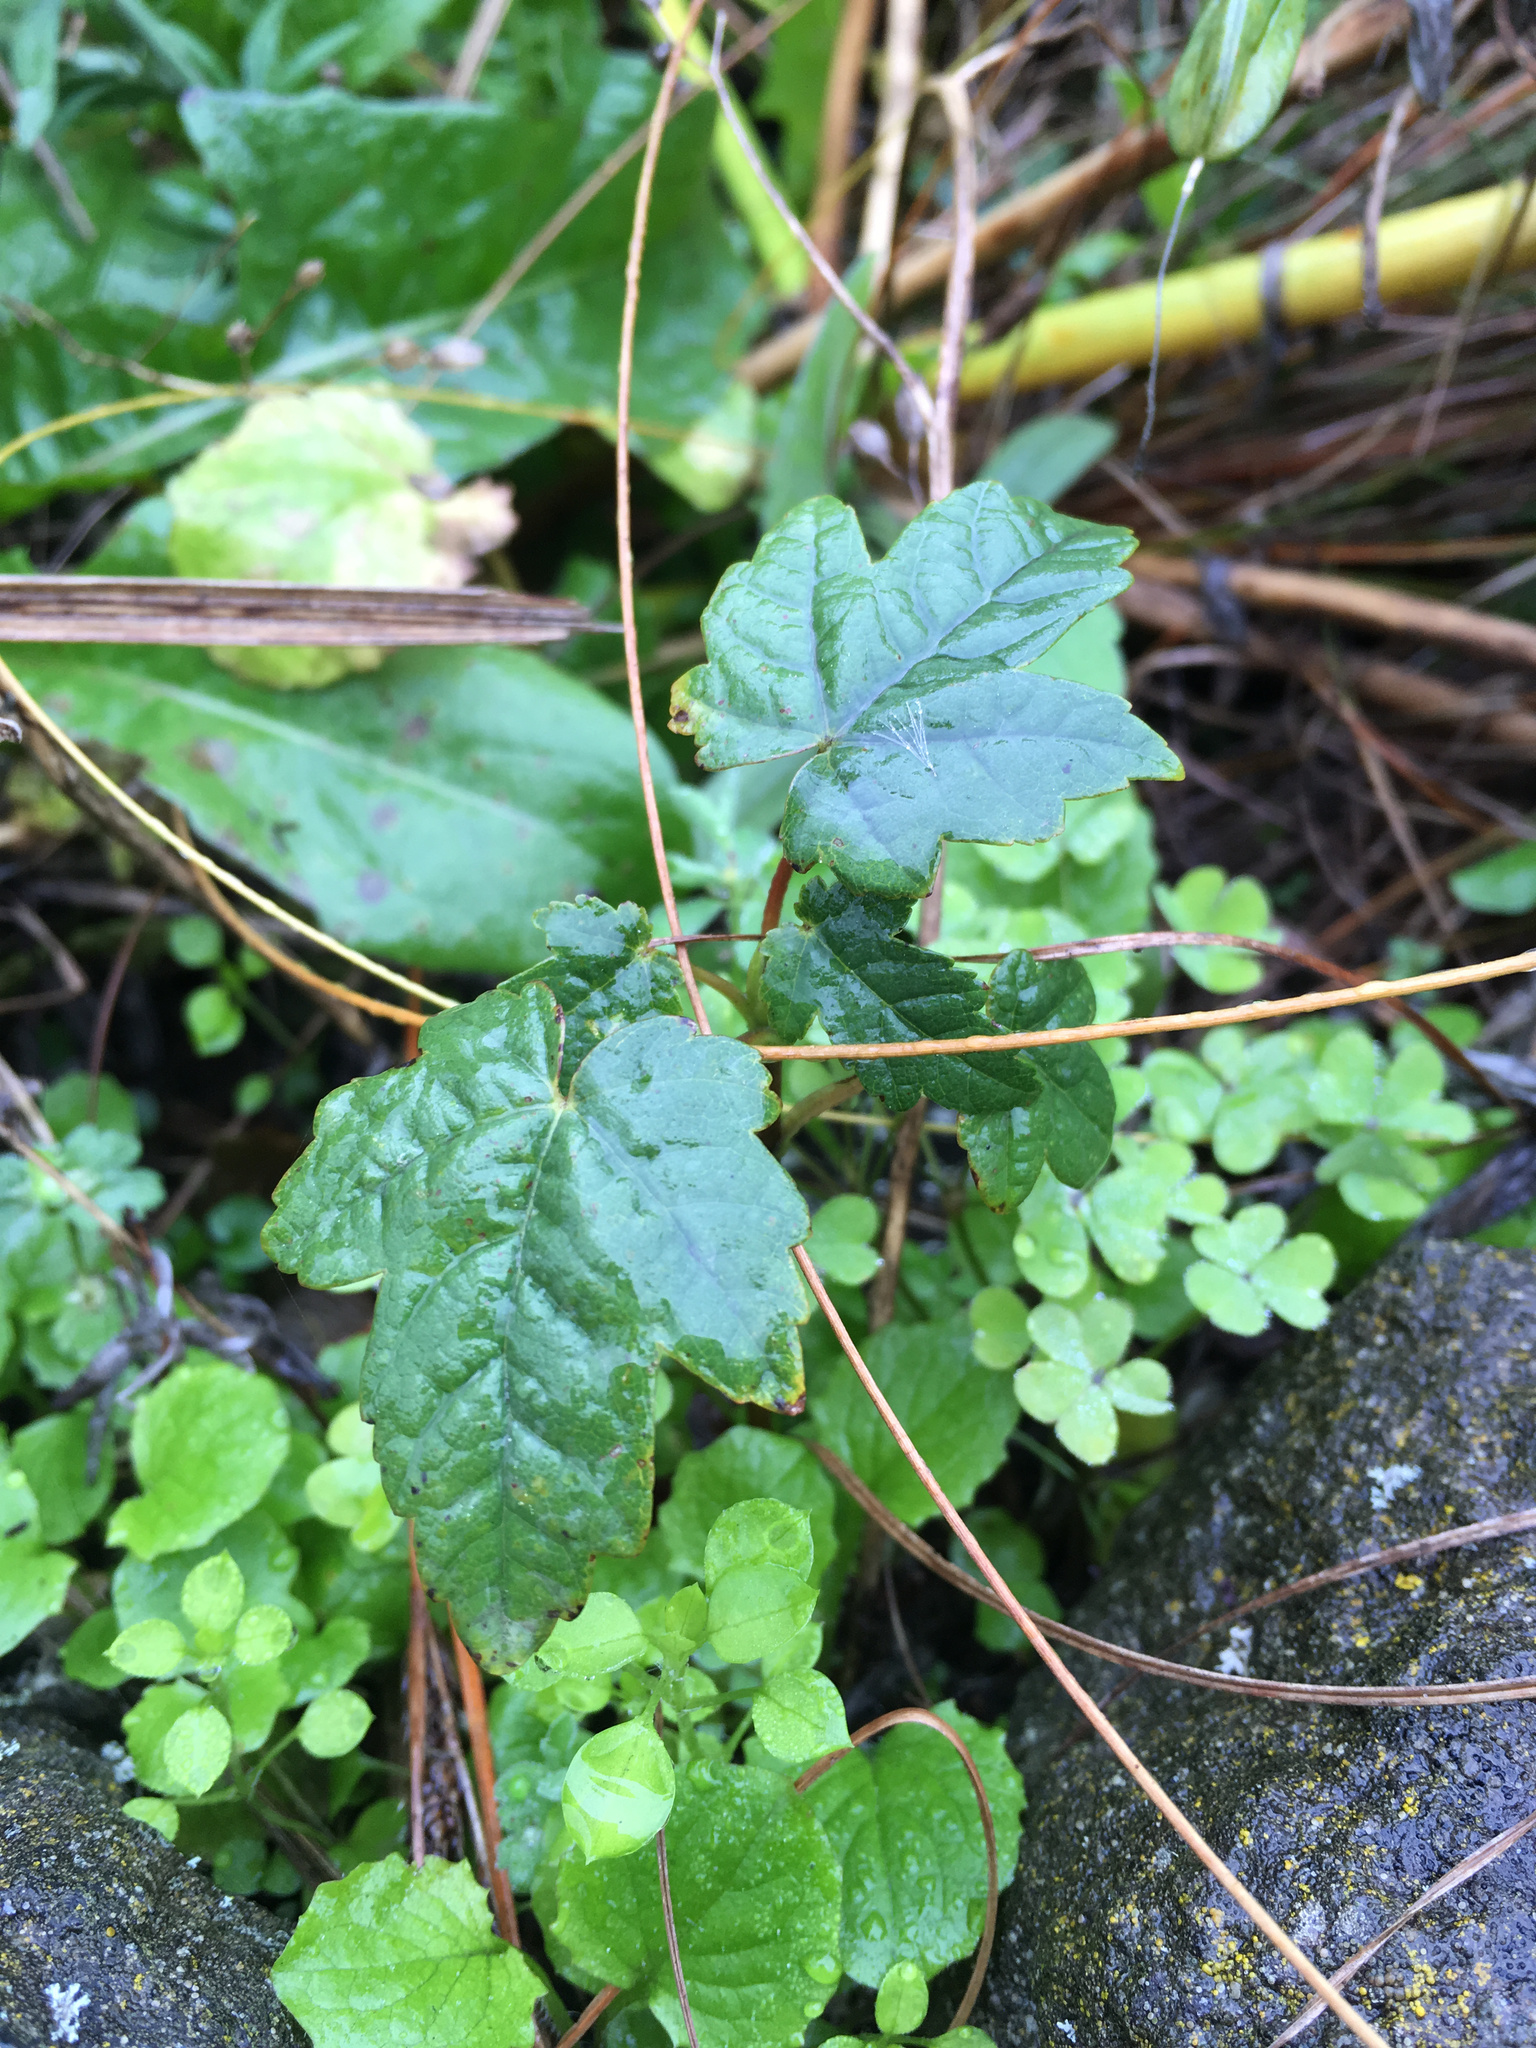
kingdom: Plantae
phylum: Tracheophyta
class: Magnoliopsida
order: Sapindales
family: Sapindaceae
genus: Acer
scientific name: Acer pseudoplatanus
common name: Sycamore
